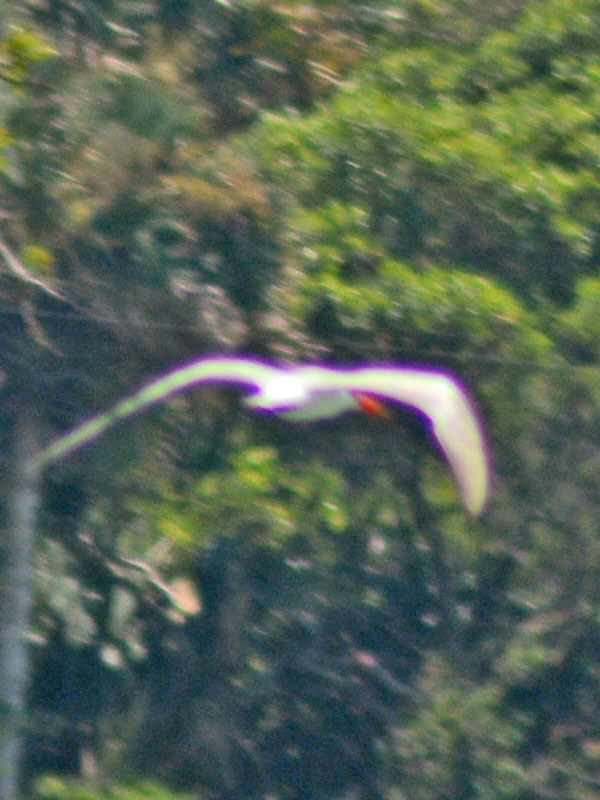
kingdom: Animalia
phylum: Chordata
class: Aves
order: Charadriiformes
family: Laridae
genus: Hydroprogne
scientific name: Hydroprogne caspia
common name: Caspian tern
